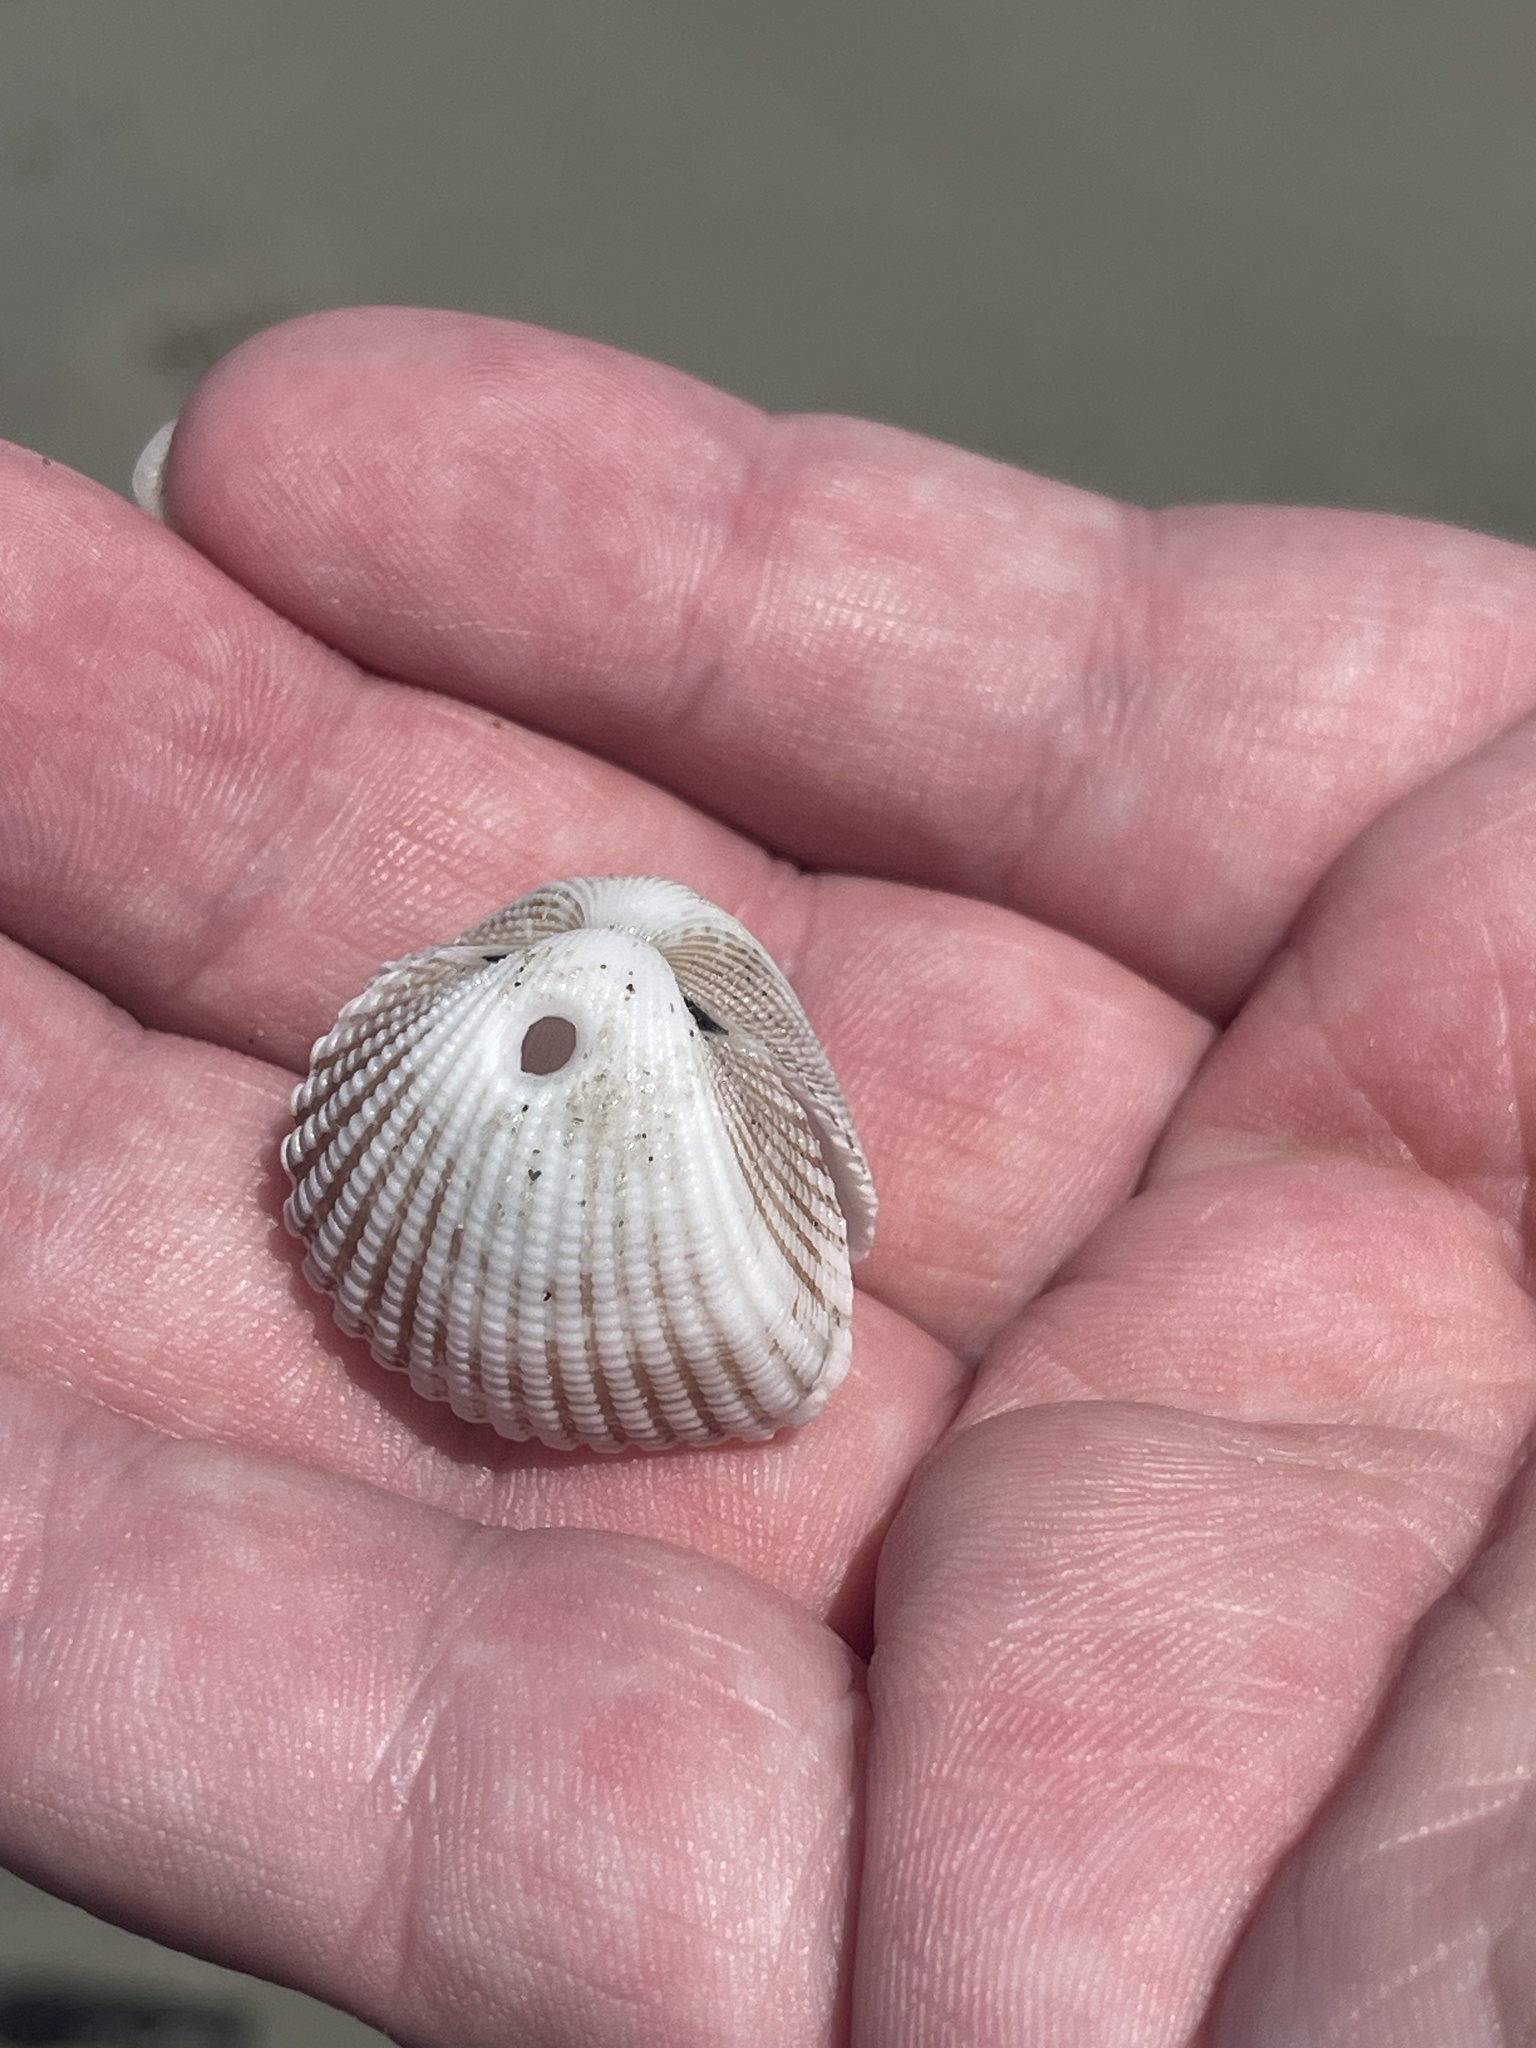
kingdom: Animalia
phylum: Mollusca
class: Bivalvia
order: Arcida
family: Arcidae
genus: Anadara
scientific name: Anadara brasiliana
